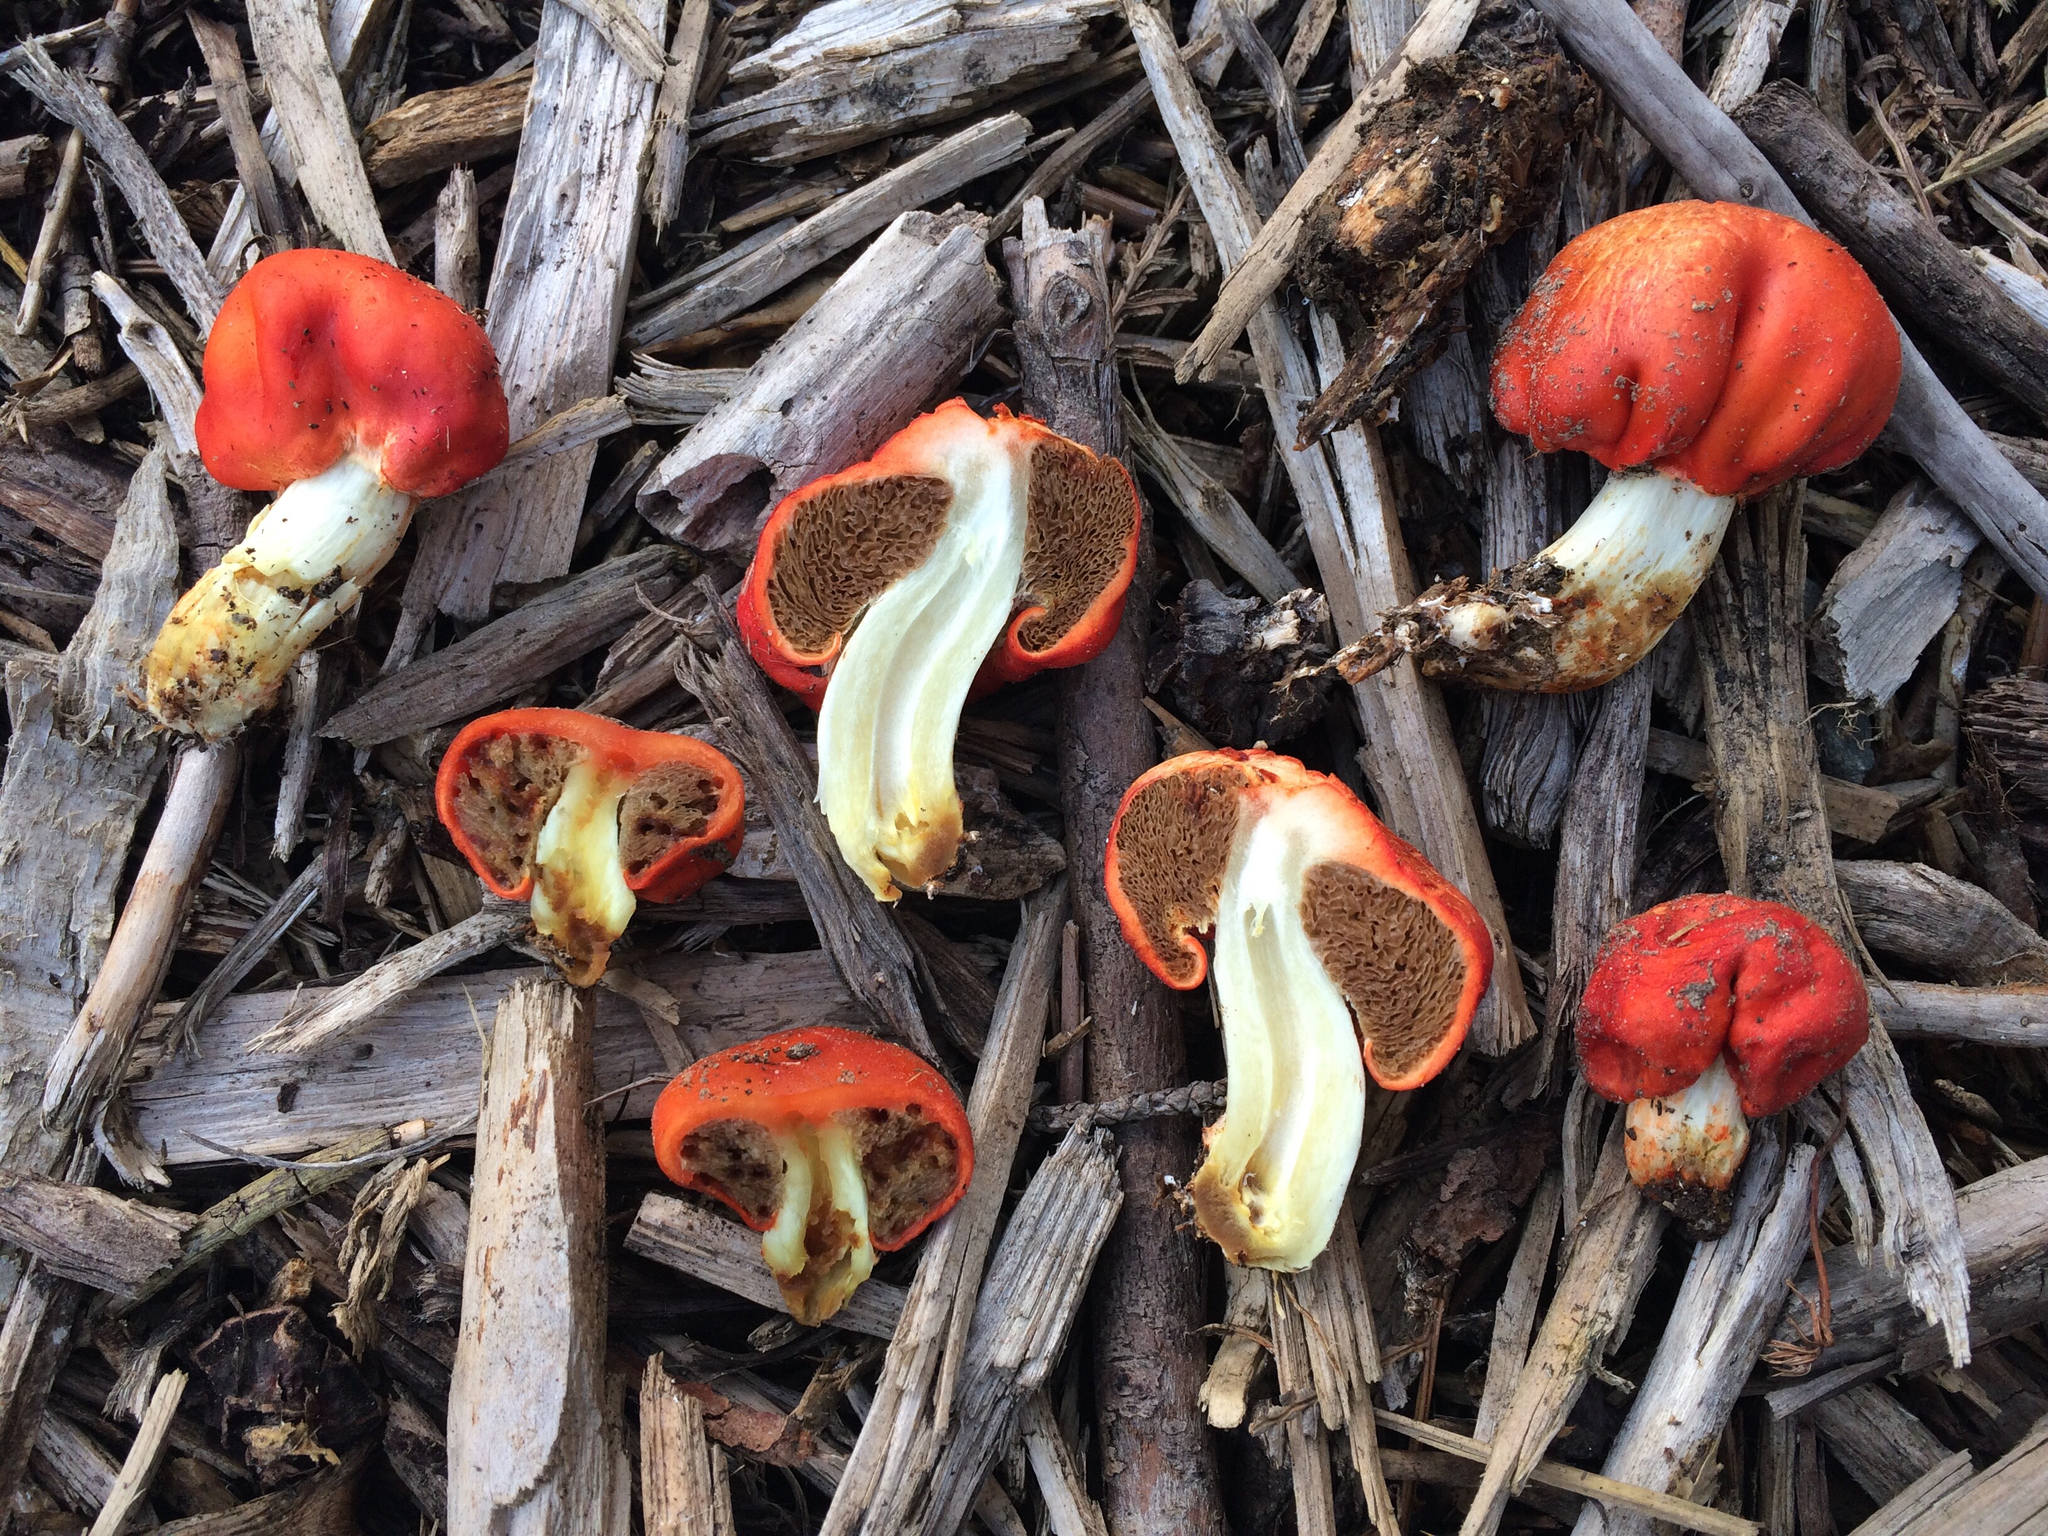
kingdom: Fungi
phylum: Basidiomycota
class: Agaricomycetes
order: Agaricales
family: Strophariaceae
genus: Leratiomyces
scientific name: Leratiomyces erythrocephalus
